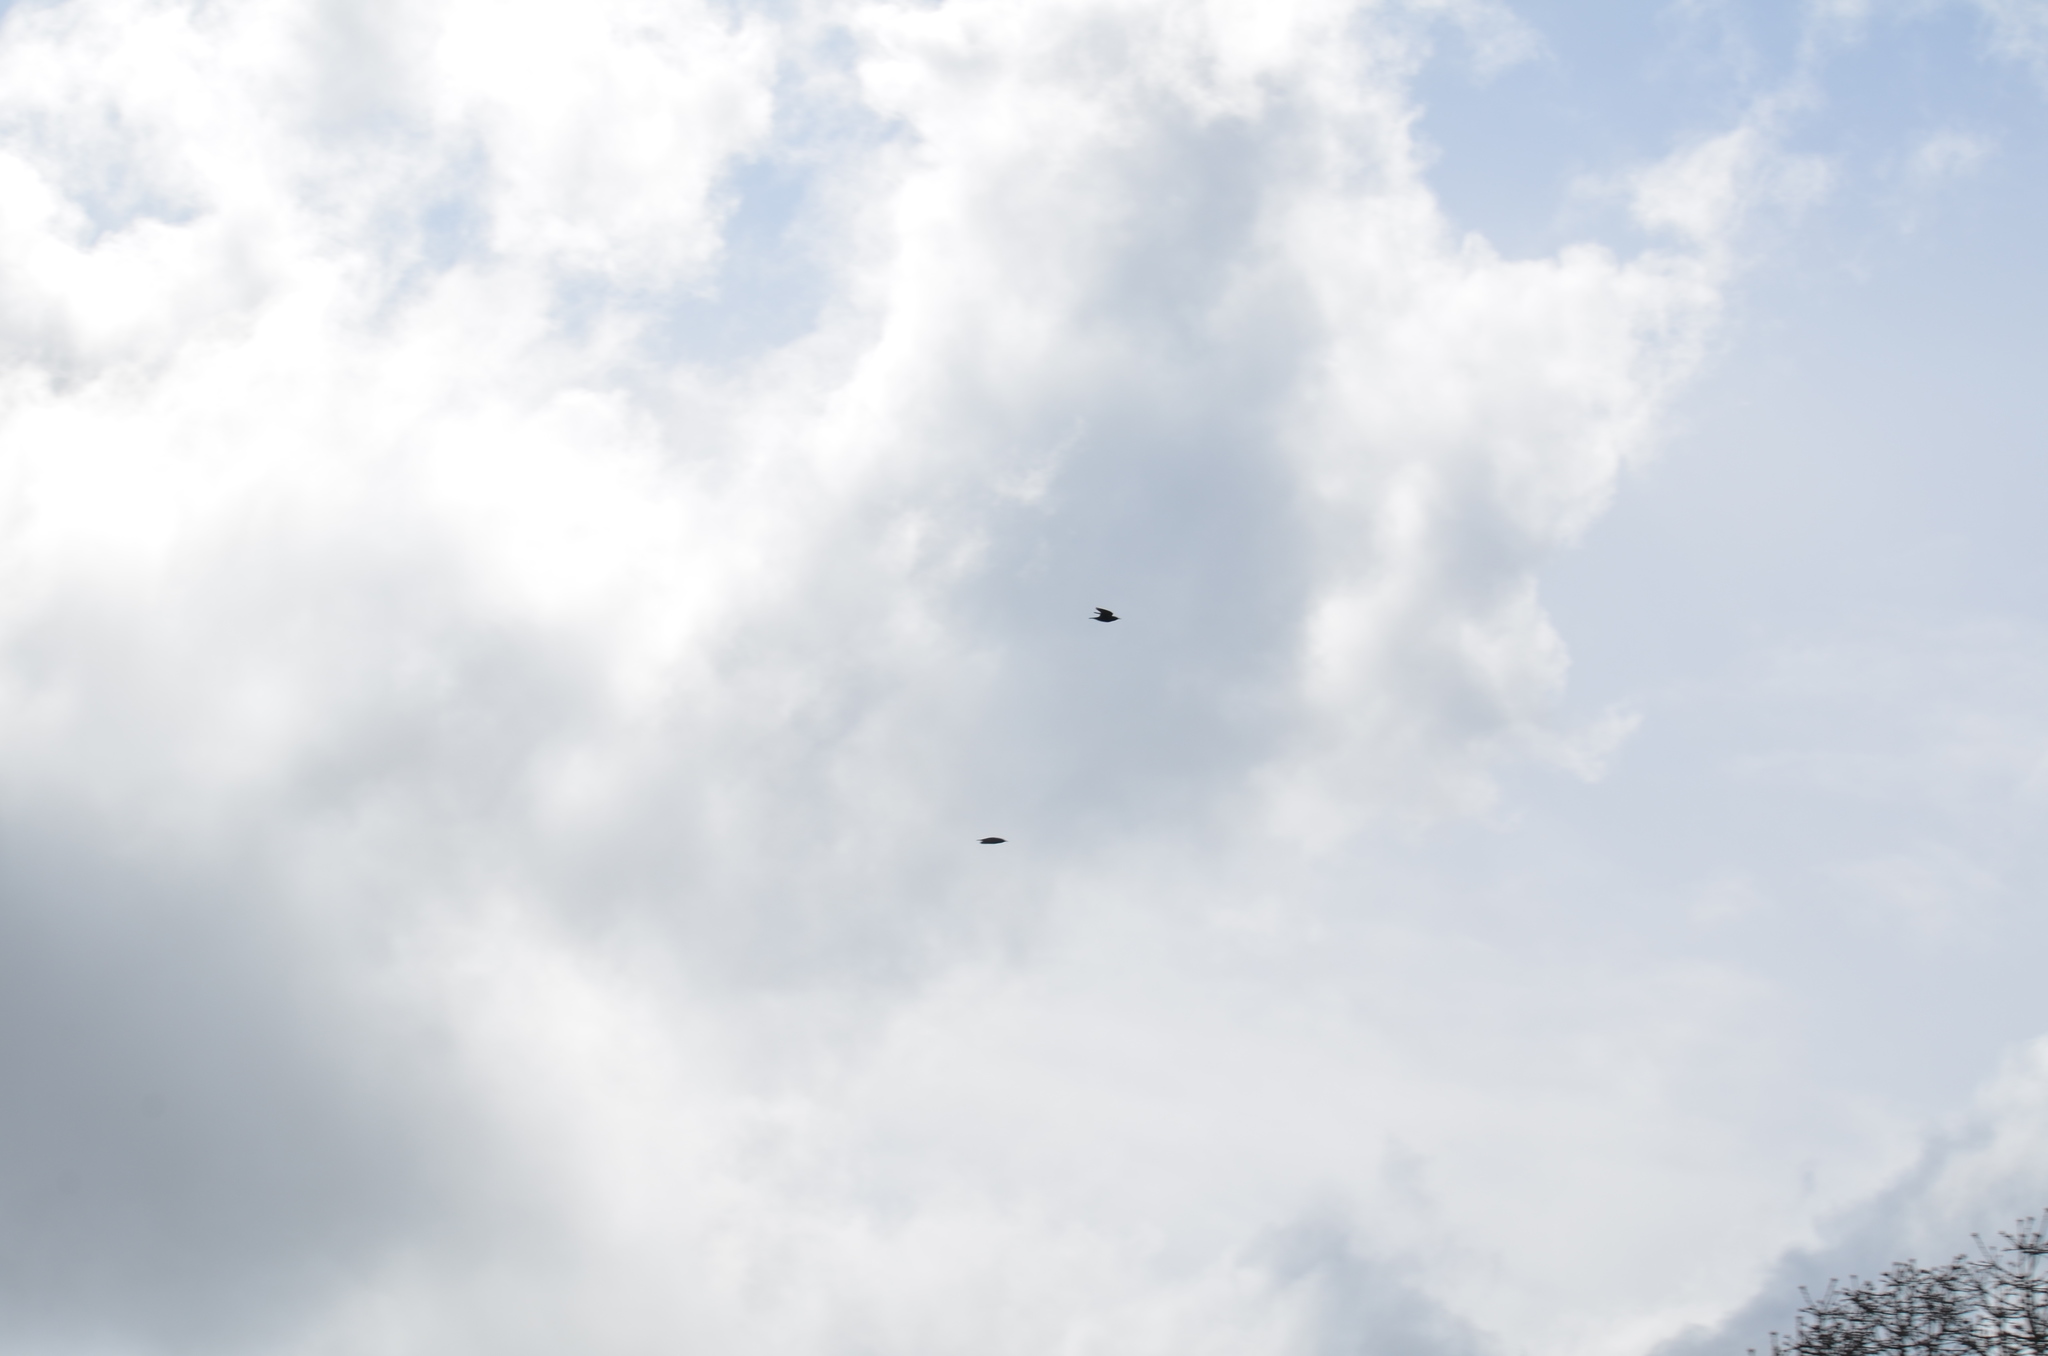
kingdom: Animalia
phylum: Chordata
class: Aves
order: Passeriformes
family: Sturnidae
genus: Sturnus
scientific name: Sturnus vulgaris
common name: Common starling
